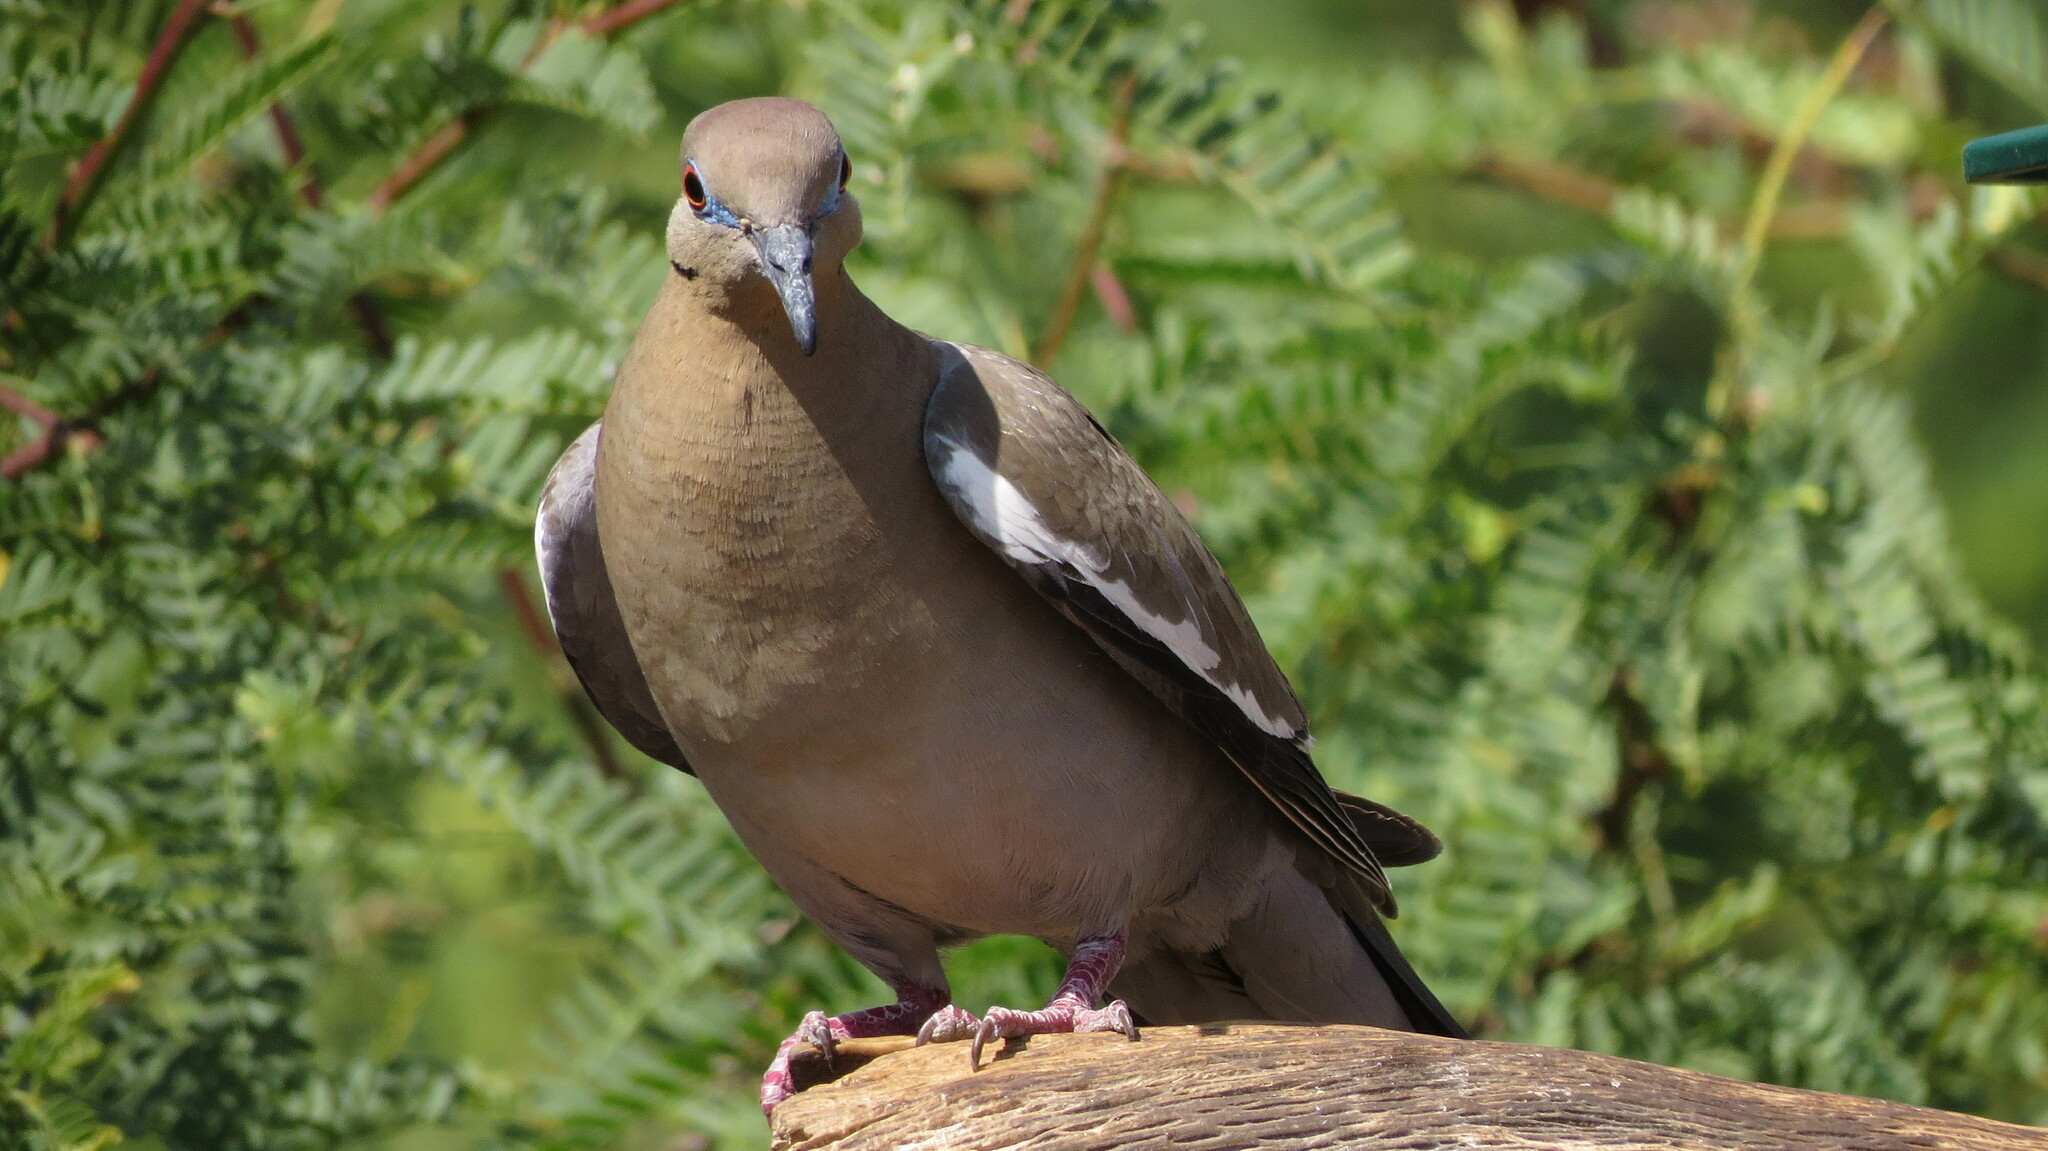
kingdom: Animalia
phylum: Chordata
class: Aves
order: Columbiformes
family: Columbidae
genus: Zenaida
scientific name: Zenaida asiatica
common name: White-winged dove
